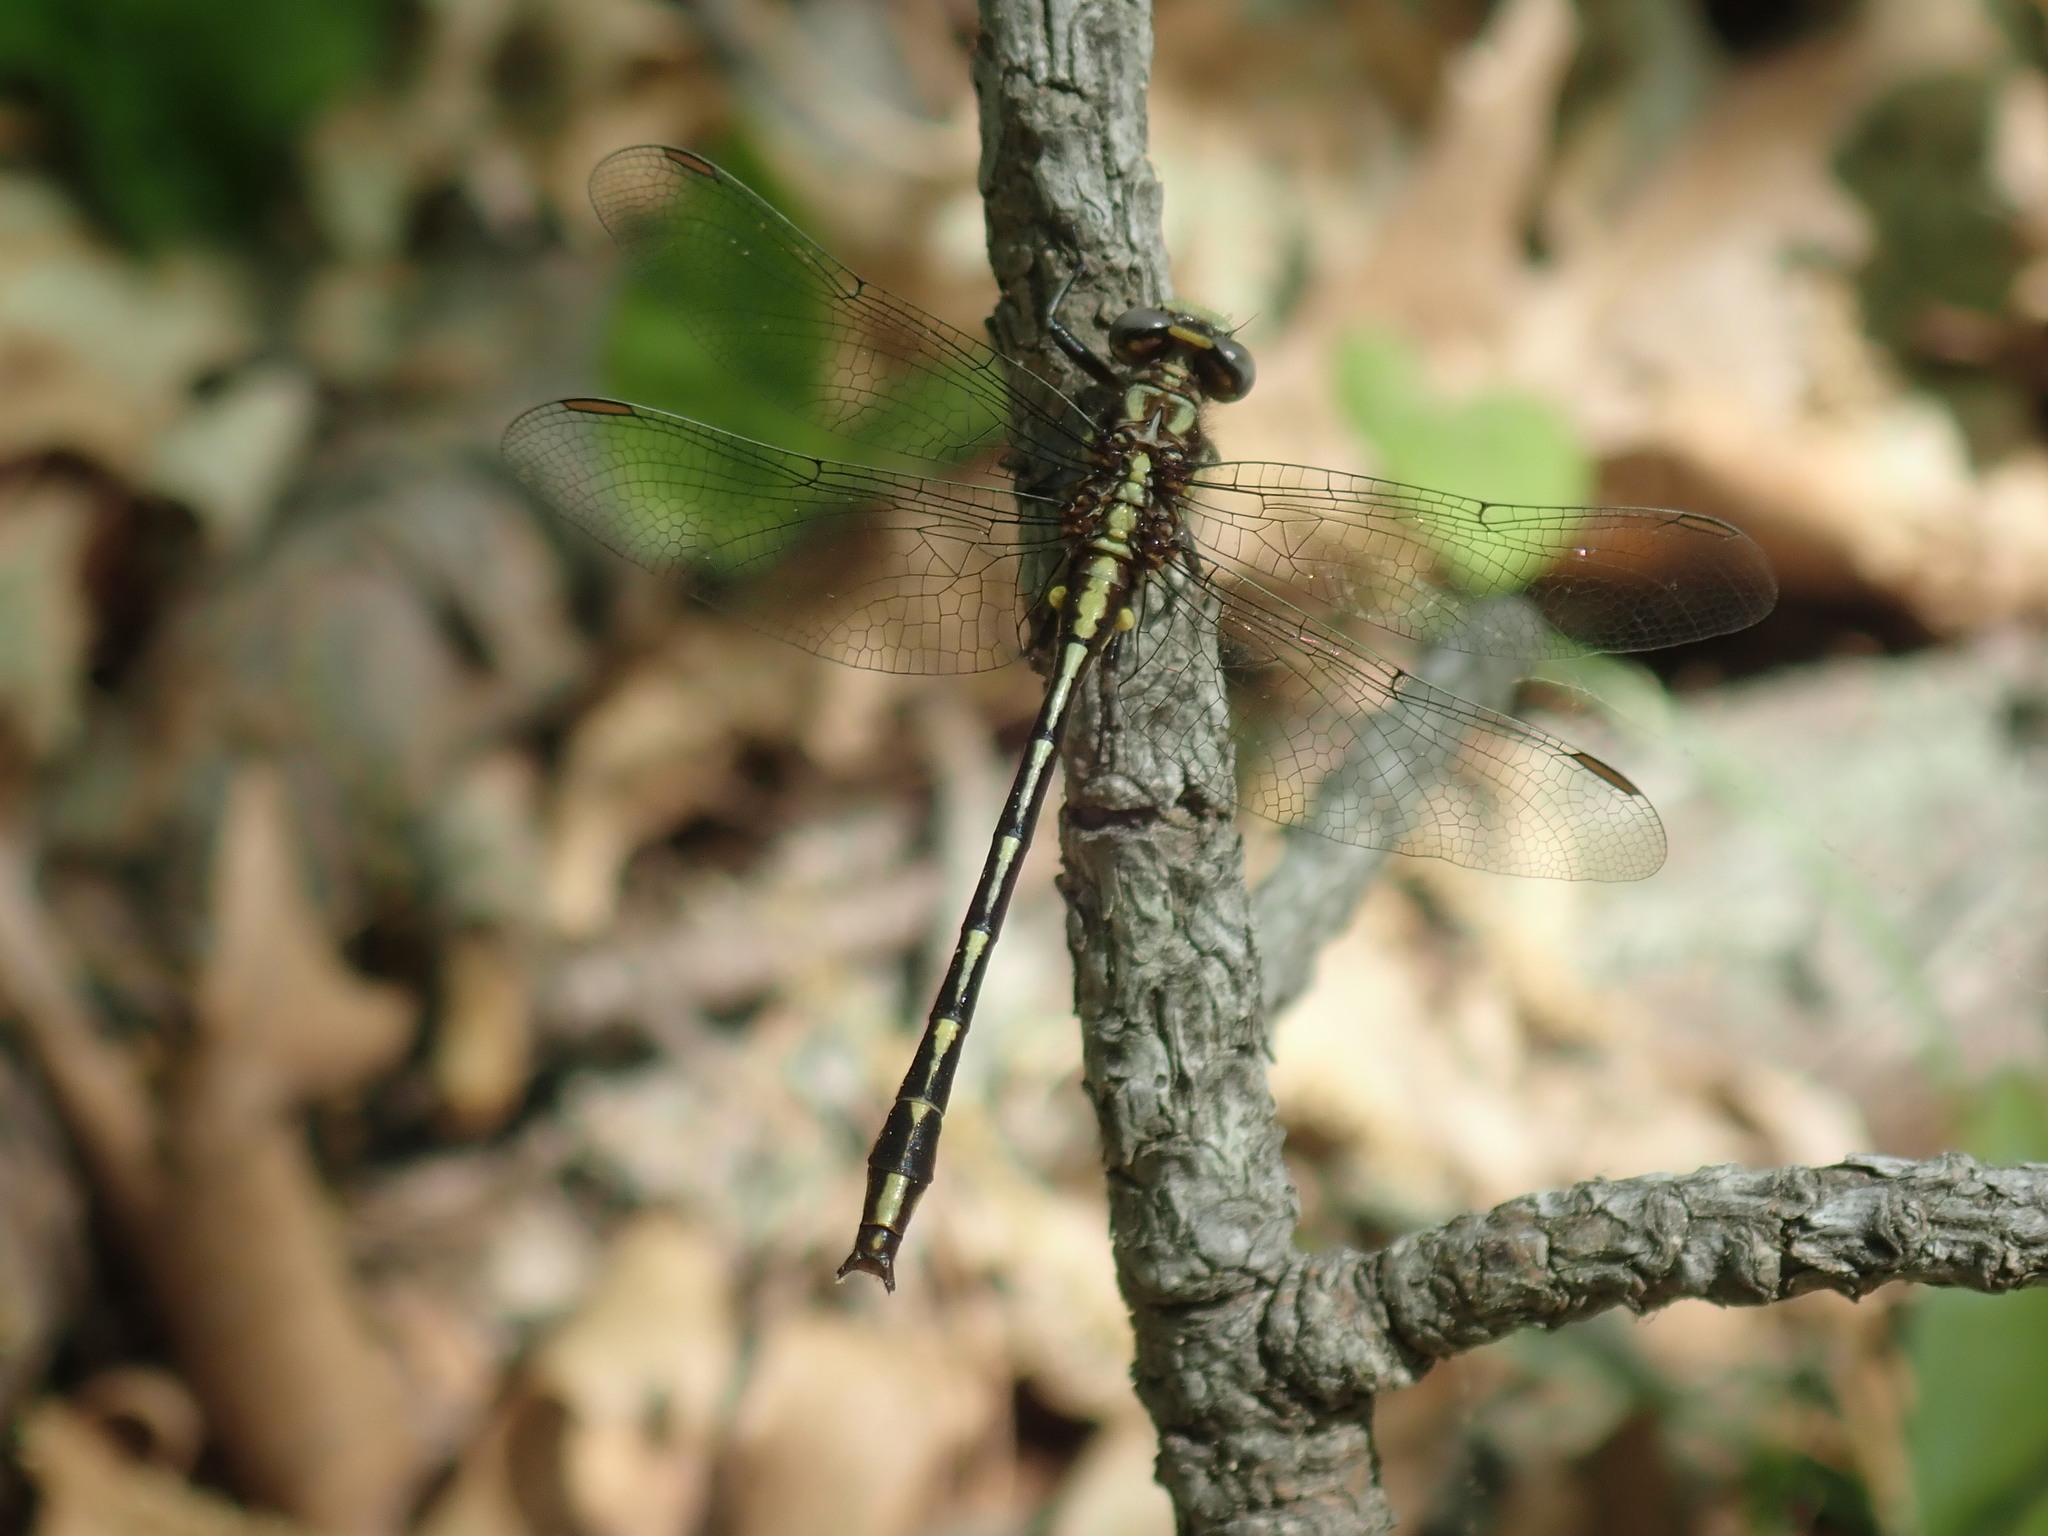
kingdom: Animalia
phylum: Arthropoda
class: Insecta
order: Odonata
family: Gomphidae
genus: Phanogomphus
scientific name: Phanogomphus exilis
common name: Lancet clubtail
